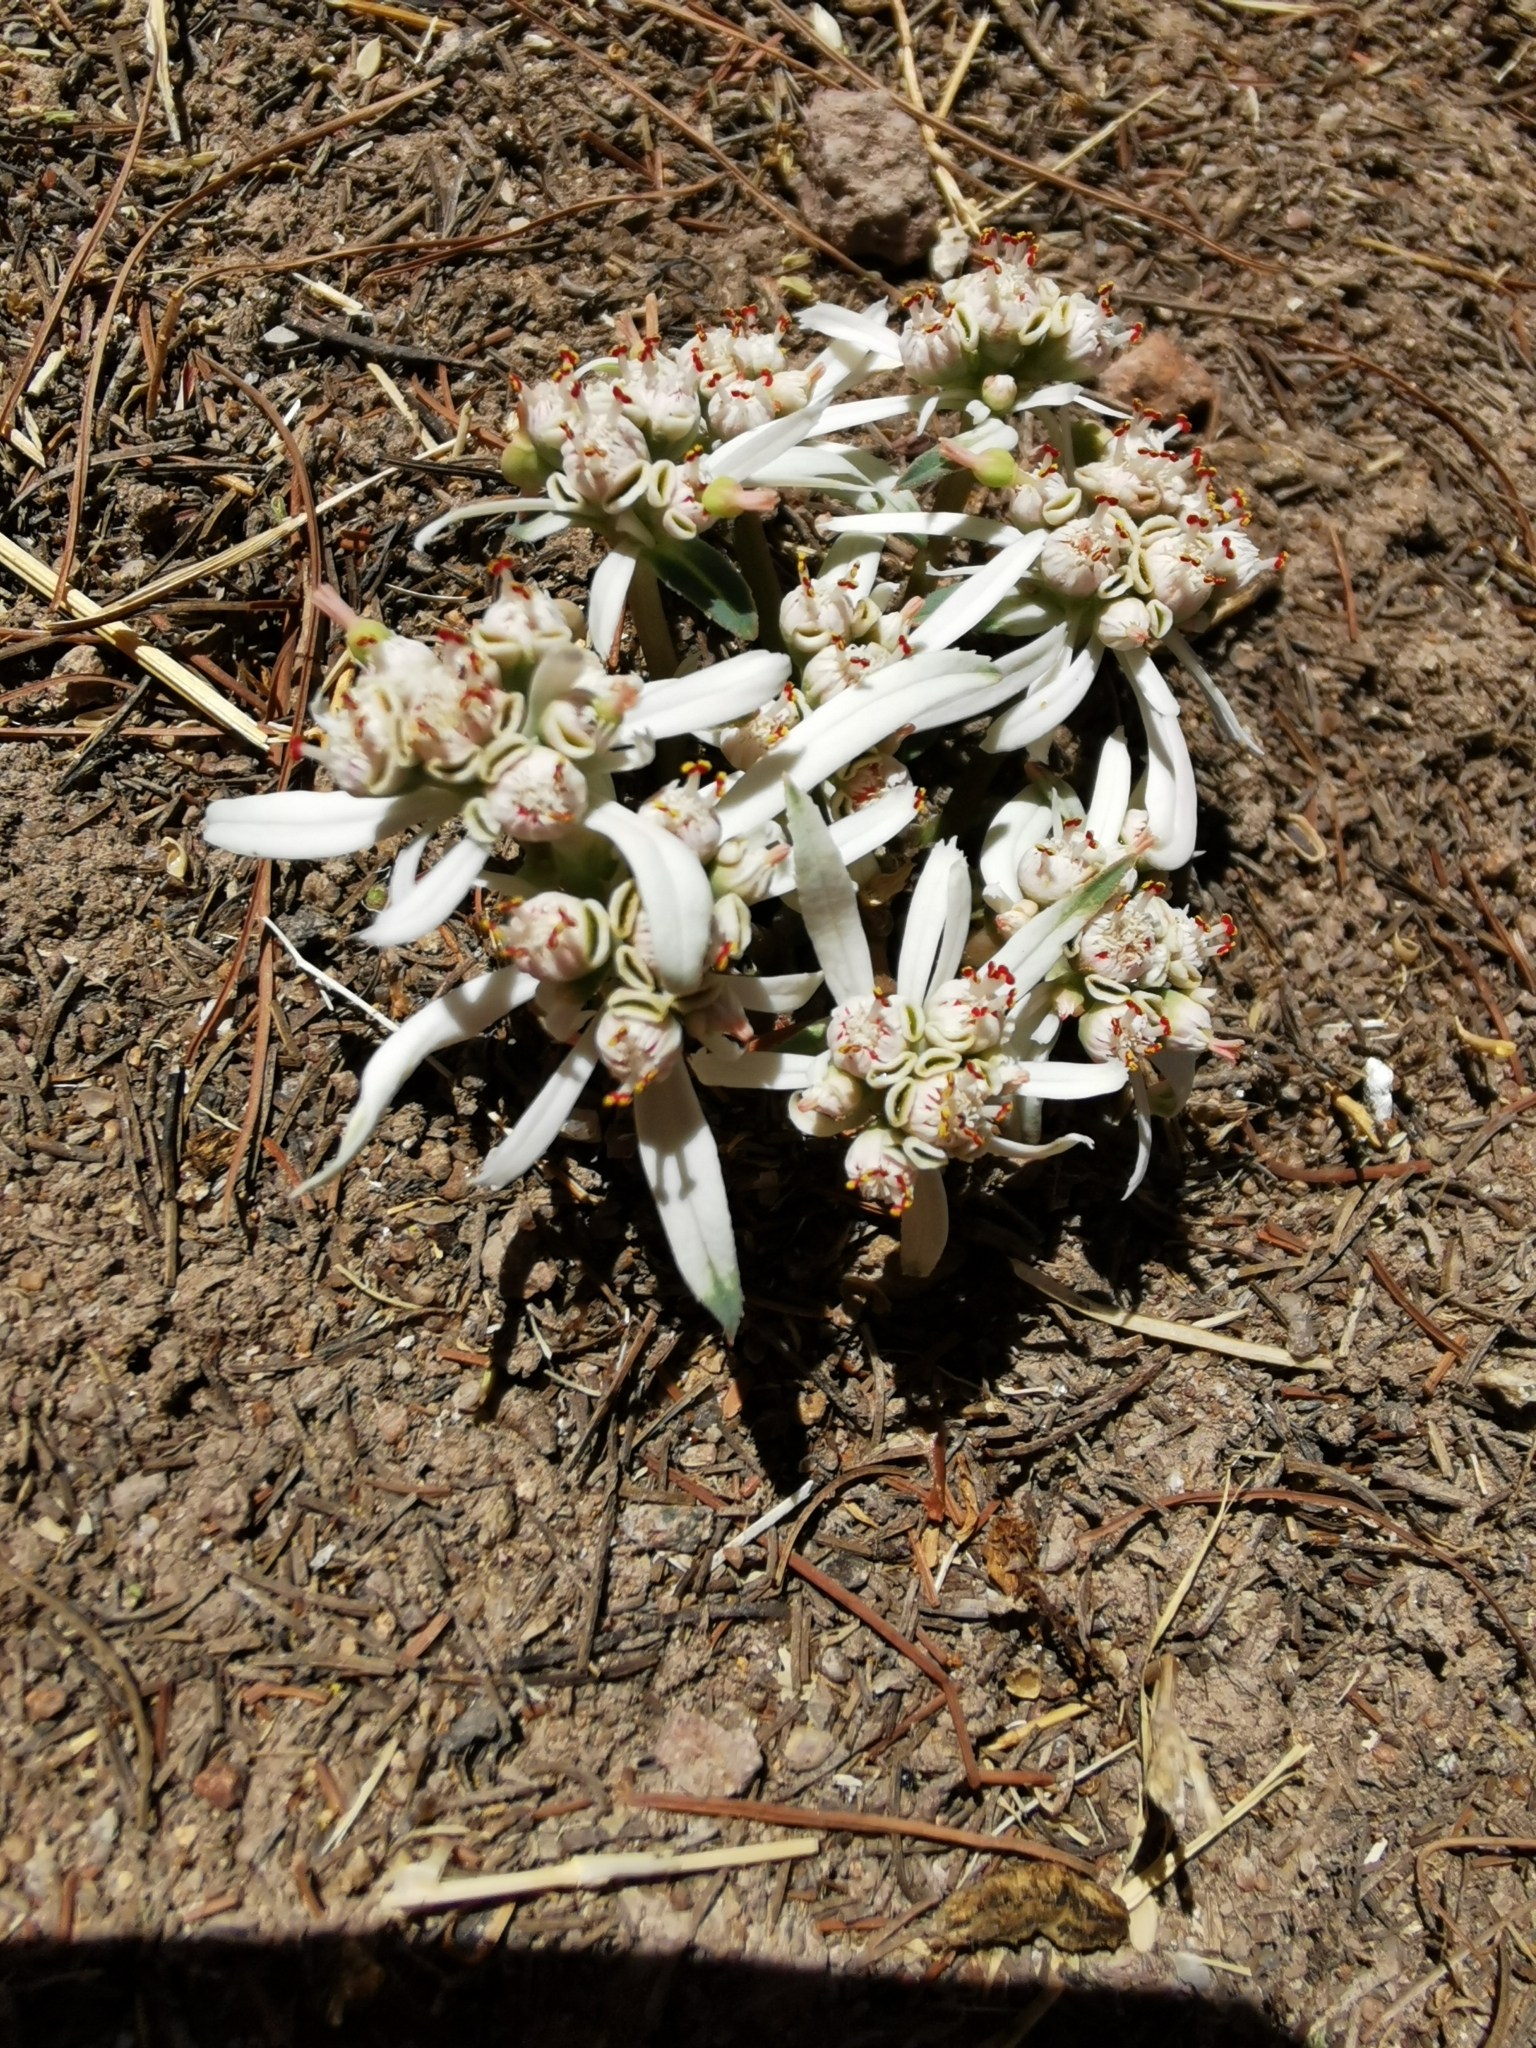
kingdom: Plantae
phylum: Tracheophyta
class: Magnoliopsida
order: Malpighiales
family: Euphorbiaceae
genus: Euphorbia
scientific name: Euphorbia radians
